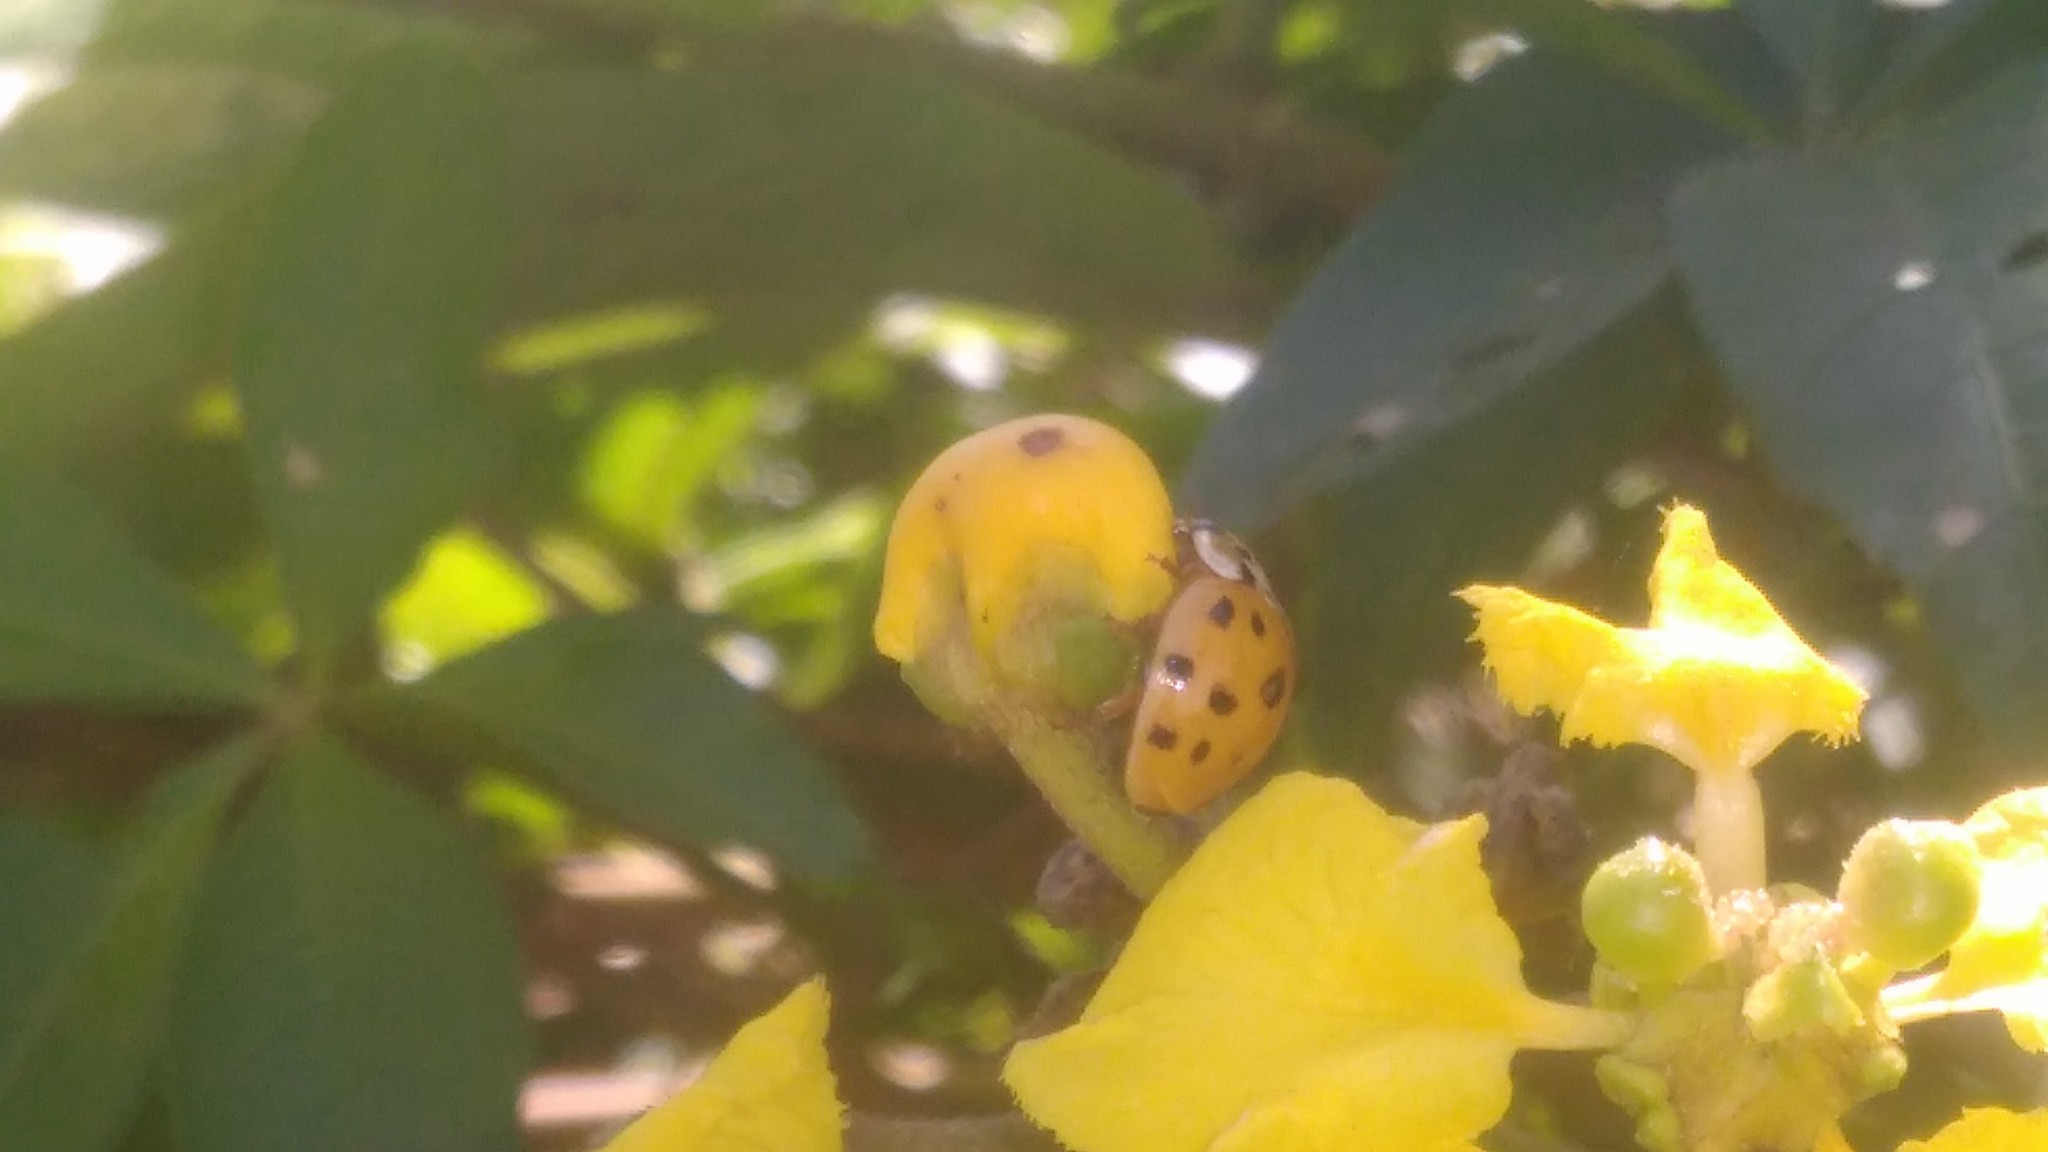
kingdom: Animalia
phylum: Arthropoda
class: Insecta
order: Coleoptera
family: Coccinellidae
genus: Harmonia
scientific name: Harmonia axyridis
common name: Harlequin ladybird
